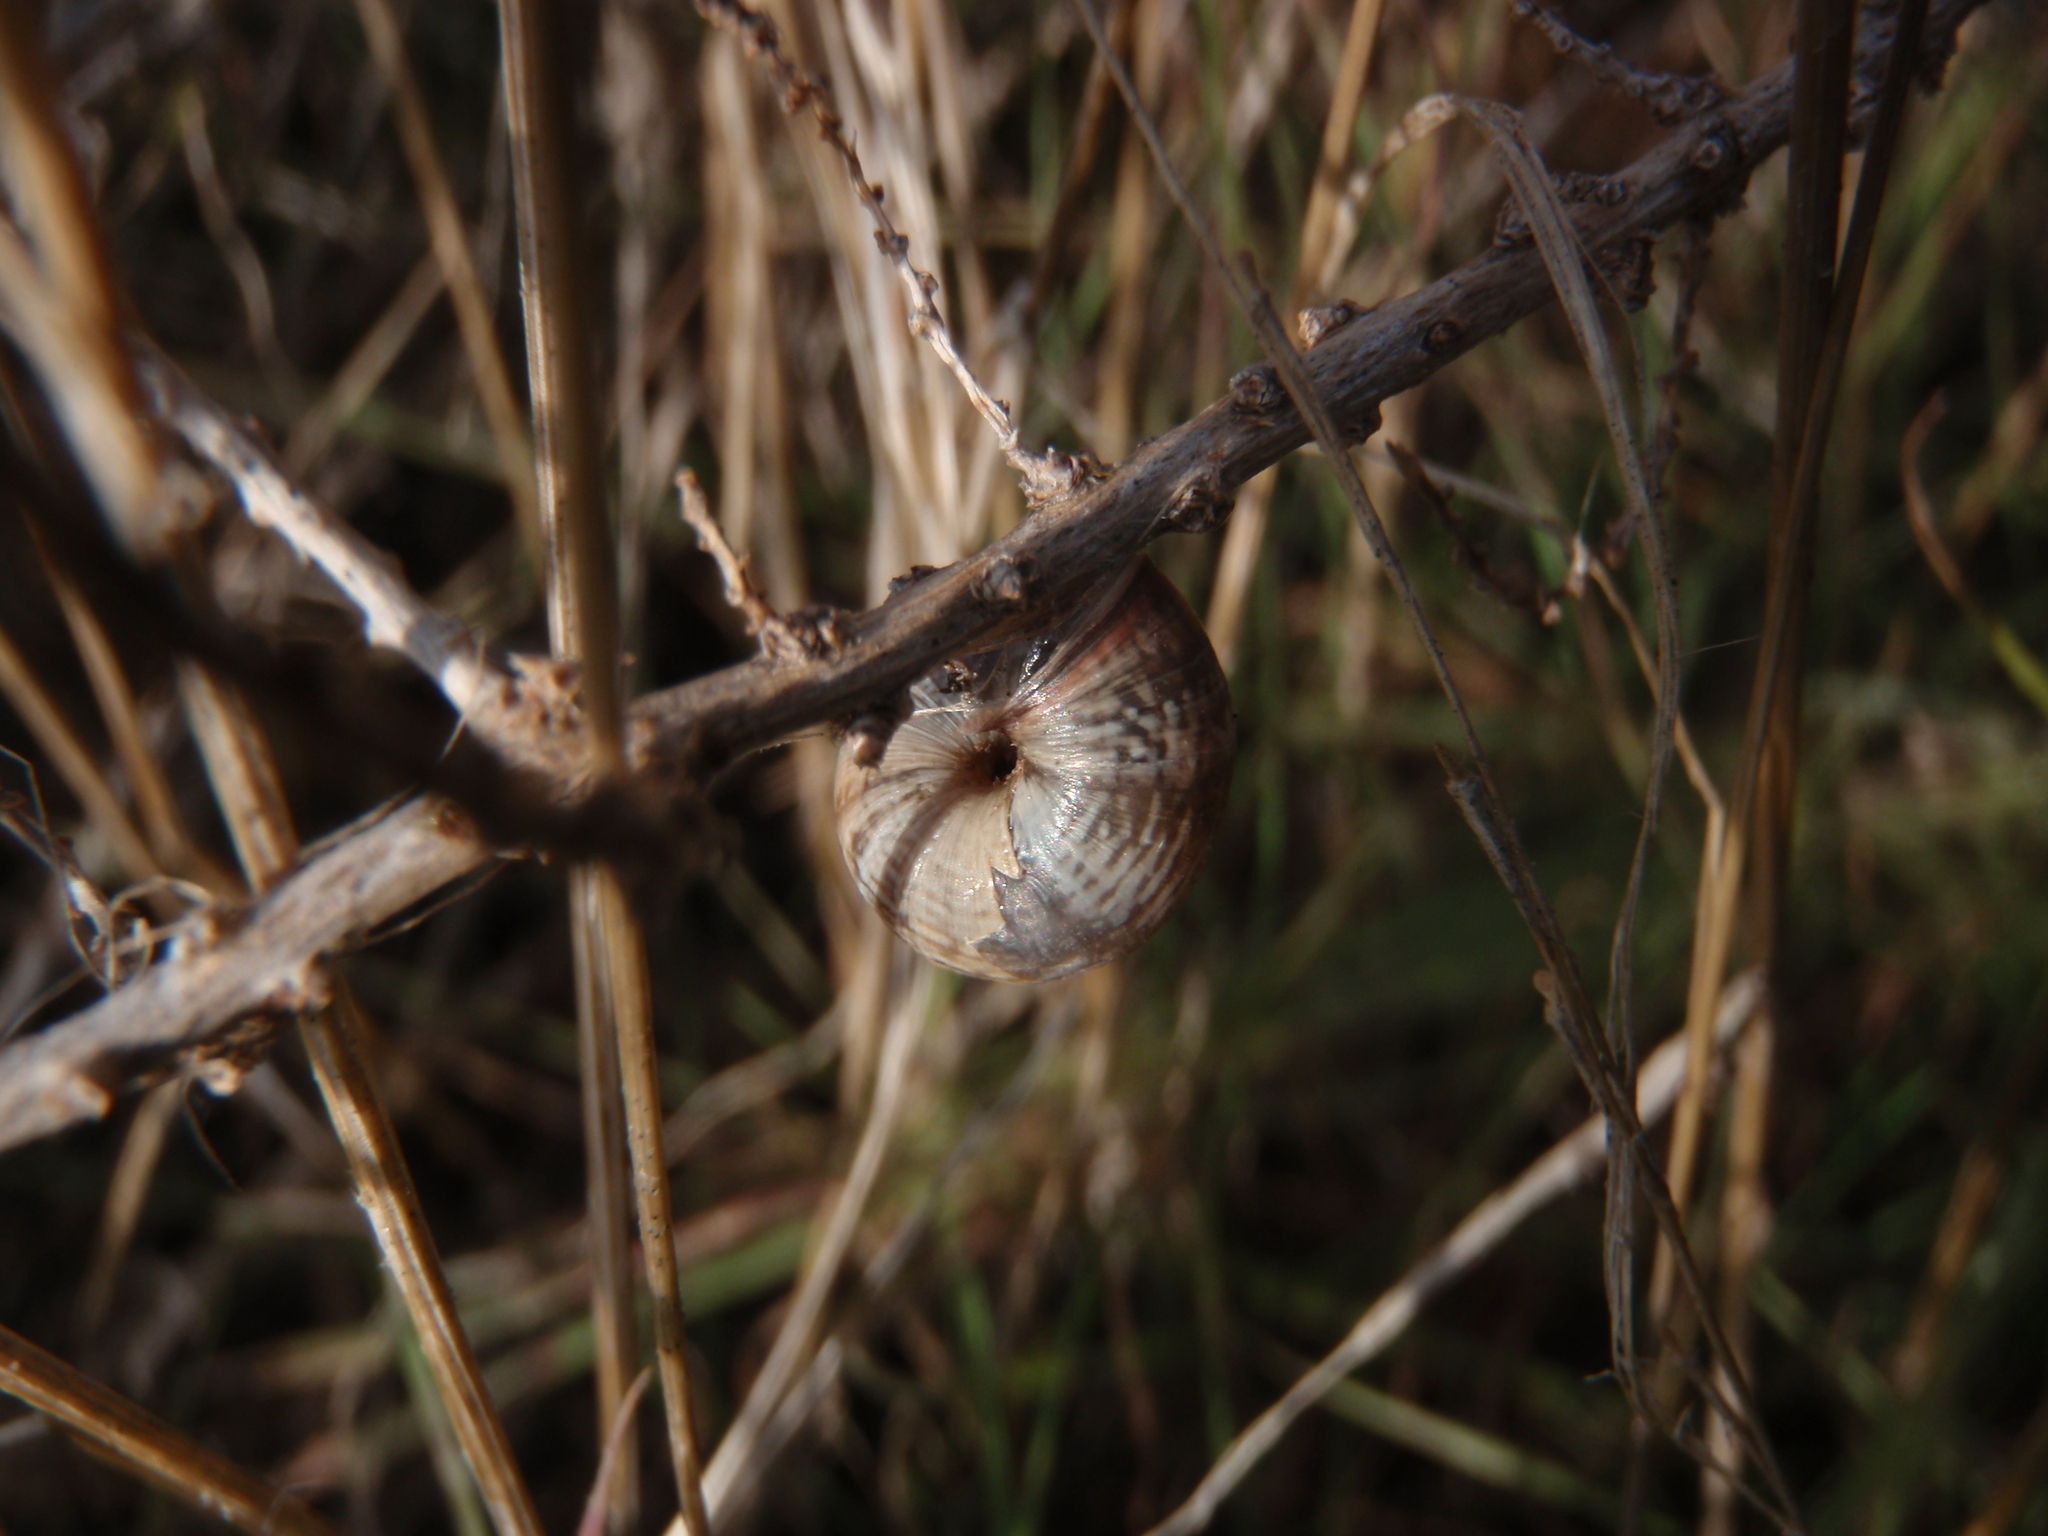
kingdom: Animalia
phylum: Mollusca
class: Gastropoda
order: Stylommatophora
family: Geomitridae
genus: Cernuella
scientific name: Cernuella virgata
